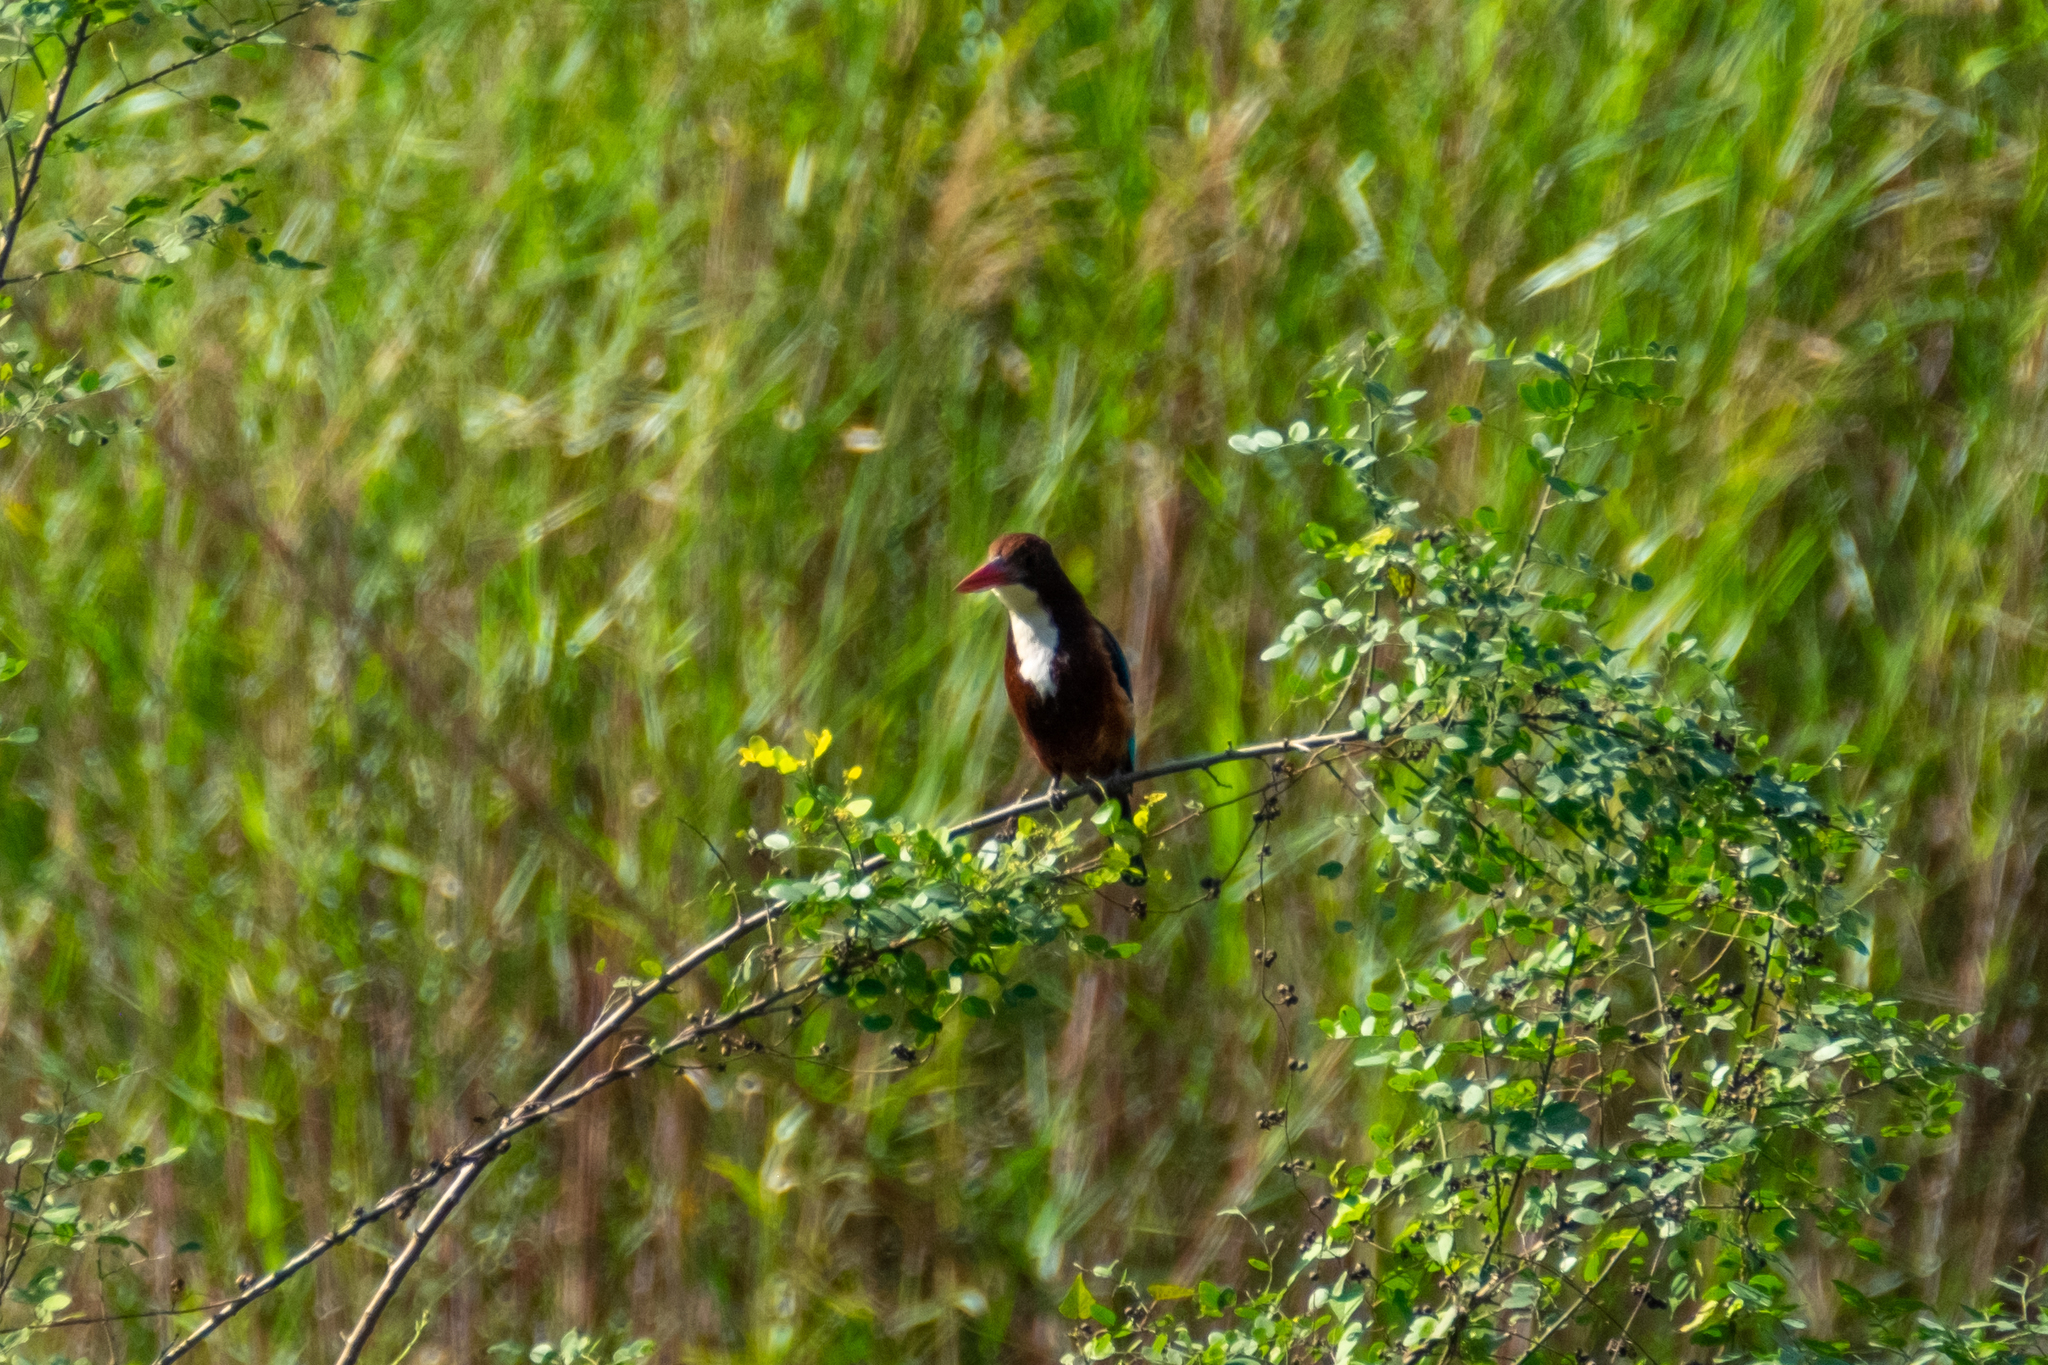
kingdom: Animalia
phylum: Chordata
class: Aves
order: Coraciiformes
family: Alcedinidae
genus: Halcyon
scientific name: Halcyon smyrnensis
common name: White-throated kingfisher
